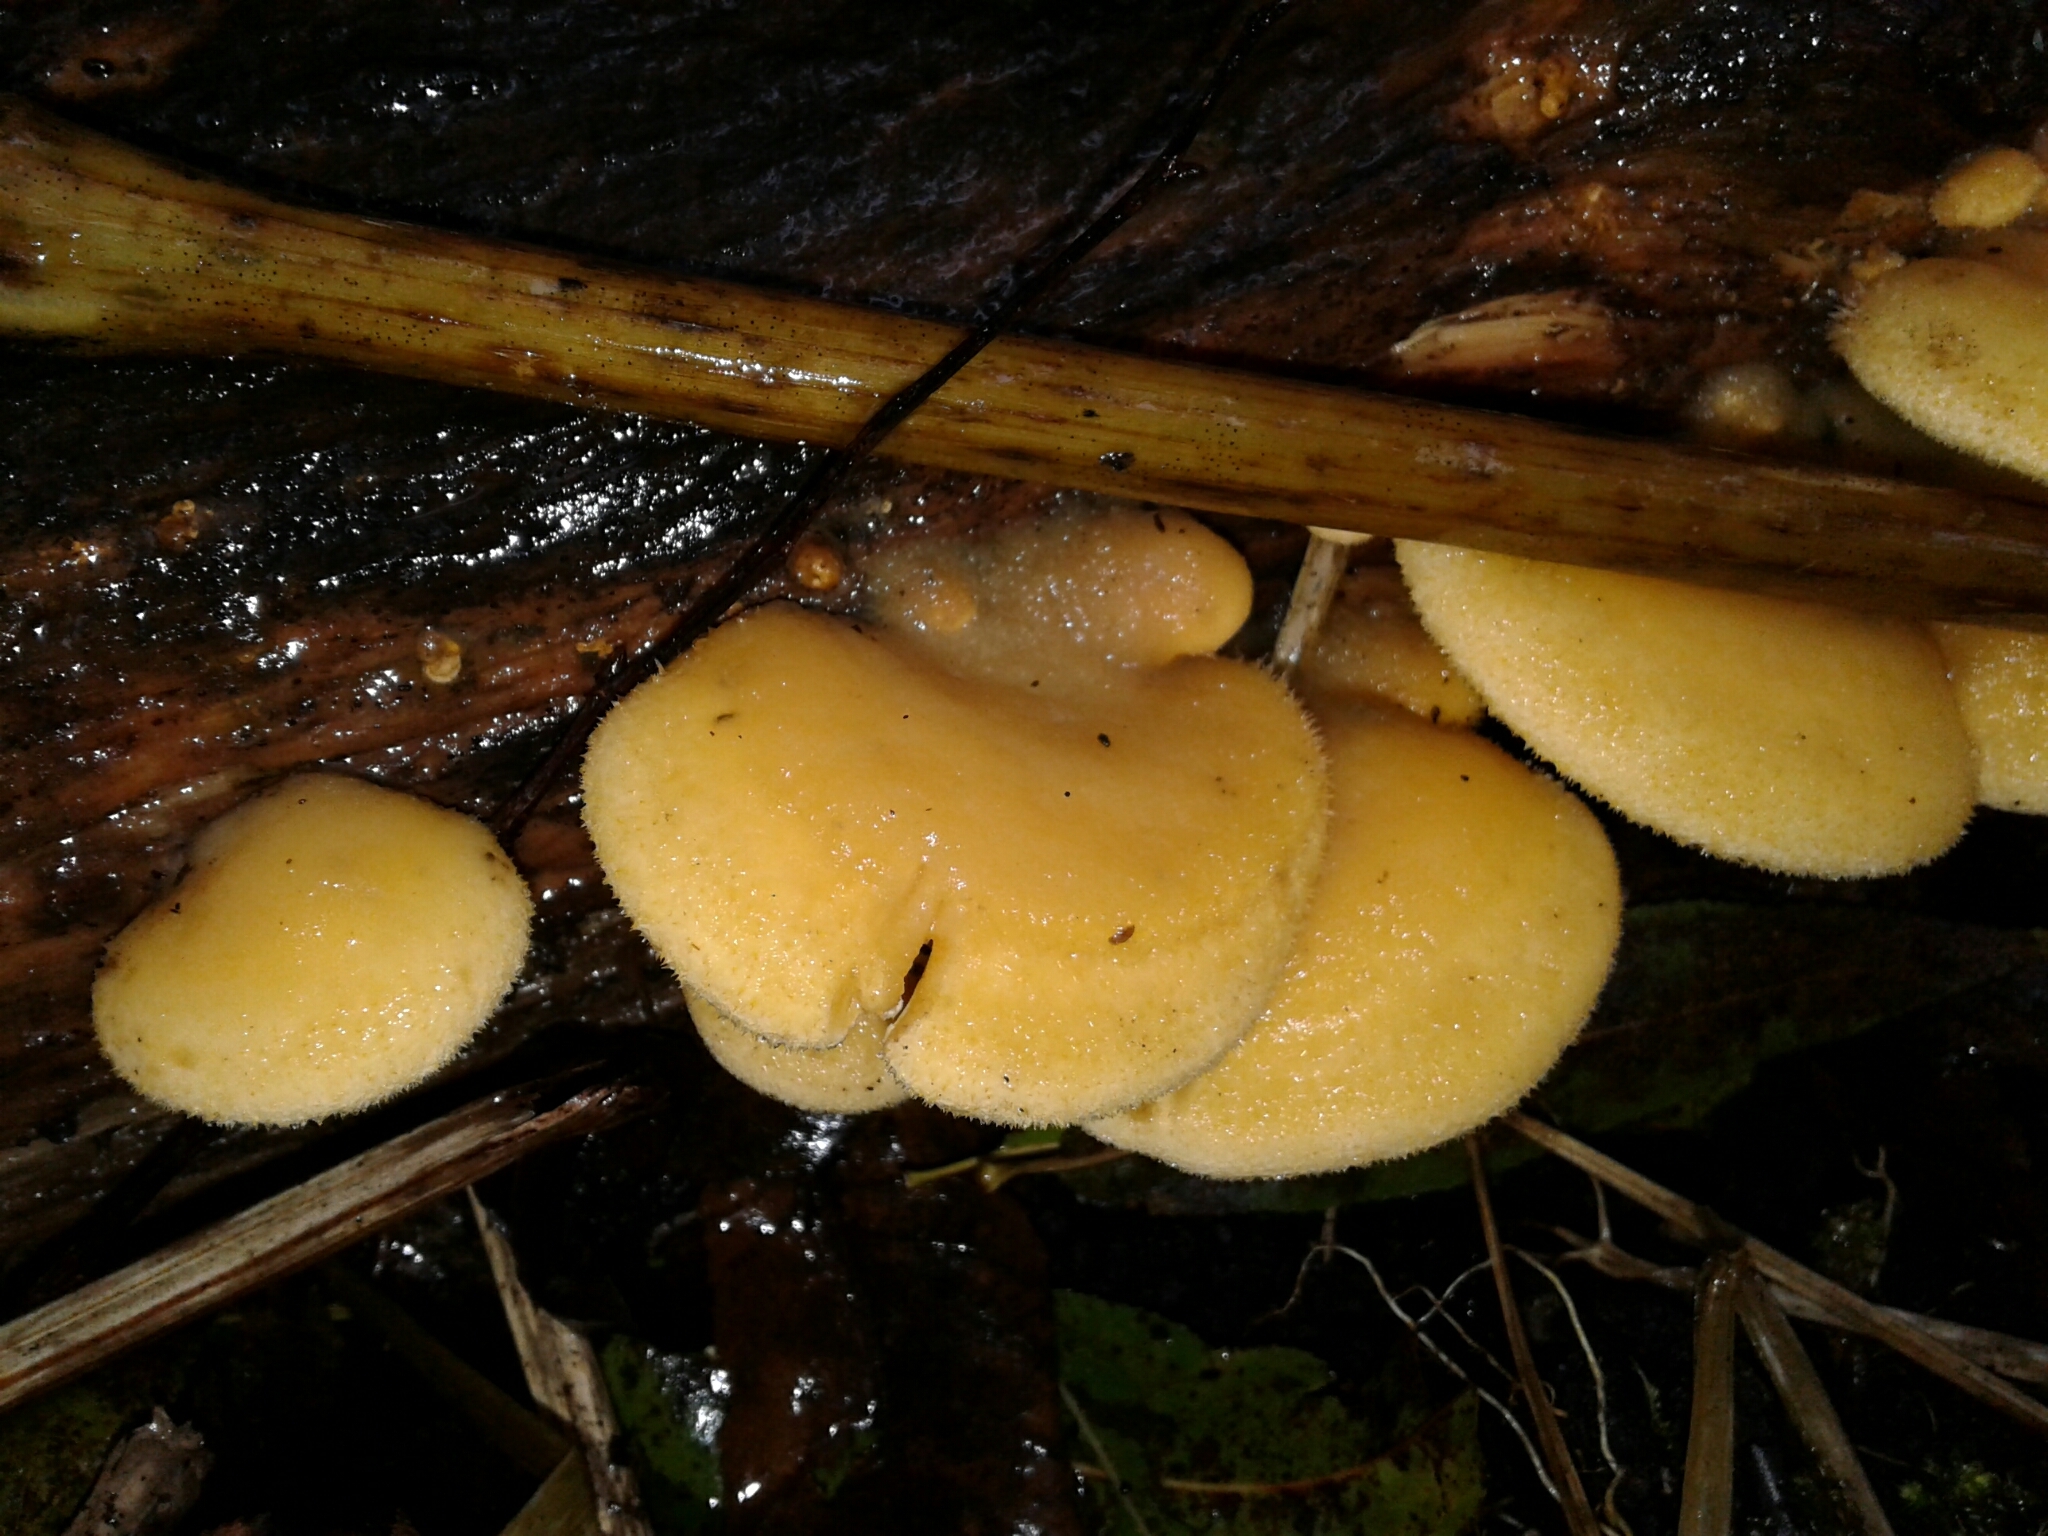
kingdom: Fungi
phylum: Basidiomycota
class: Agaricomycetes
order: Agaricales
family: Phyllotopsidaceae
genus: Phyllotopsis
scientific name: Phyllotopsis nidulans
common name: Orange mock oyster
